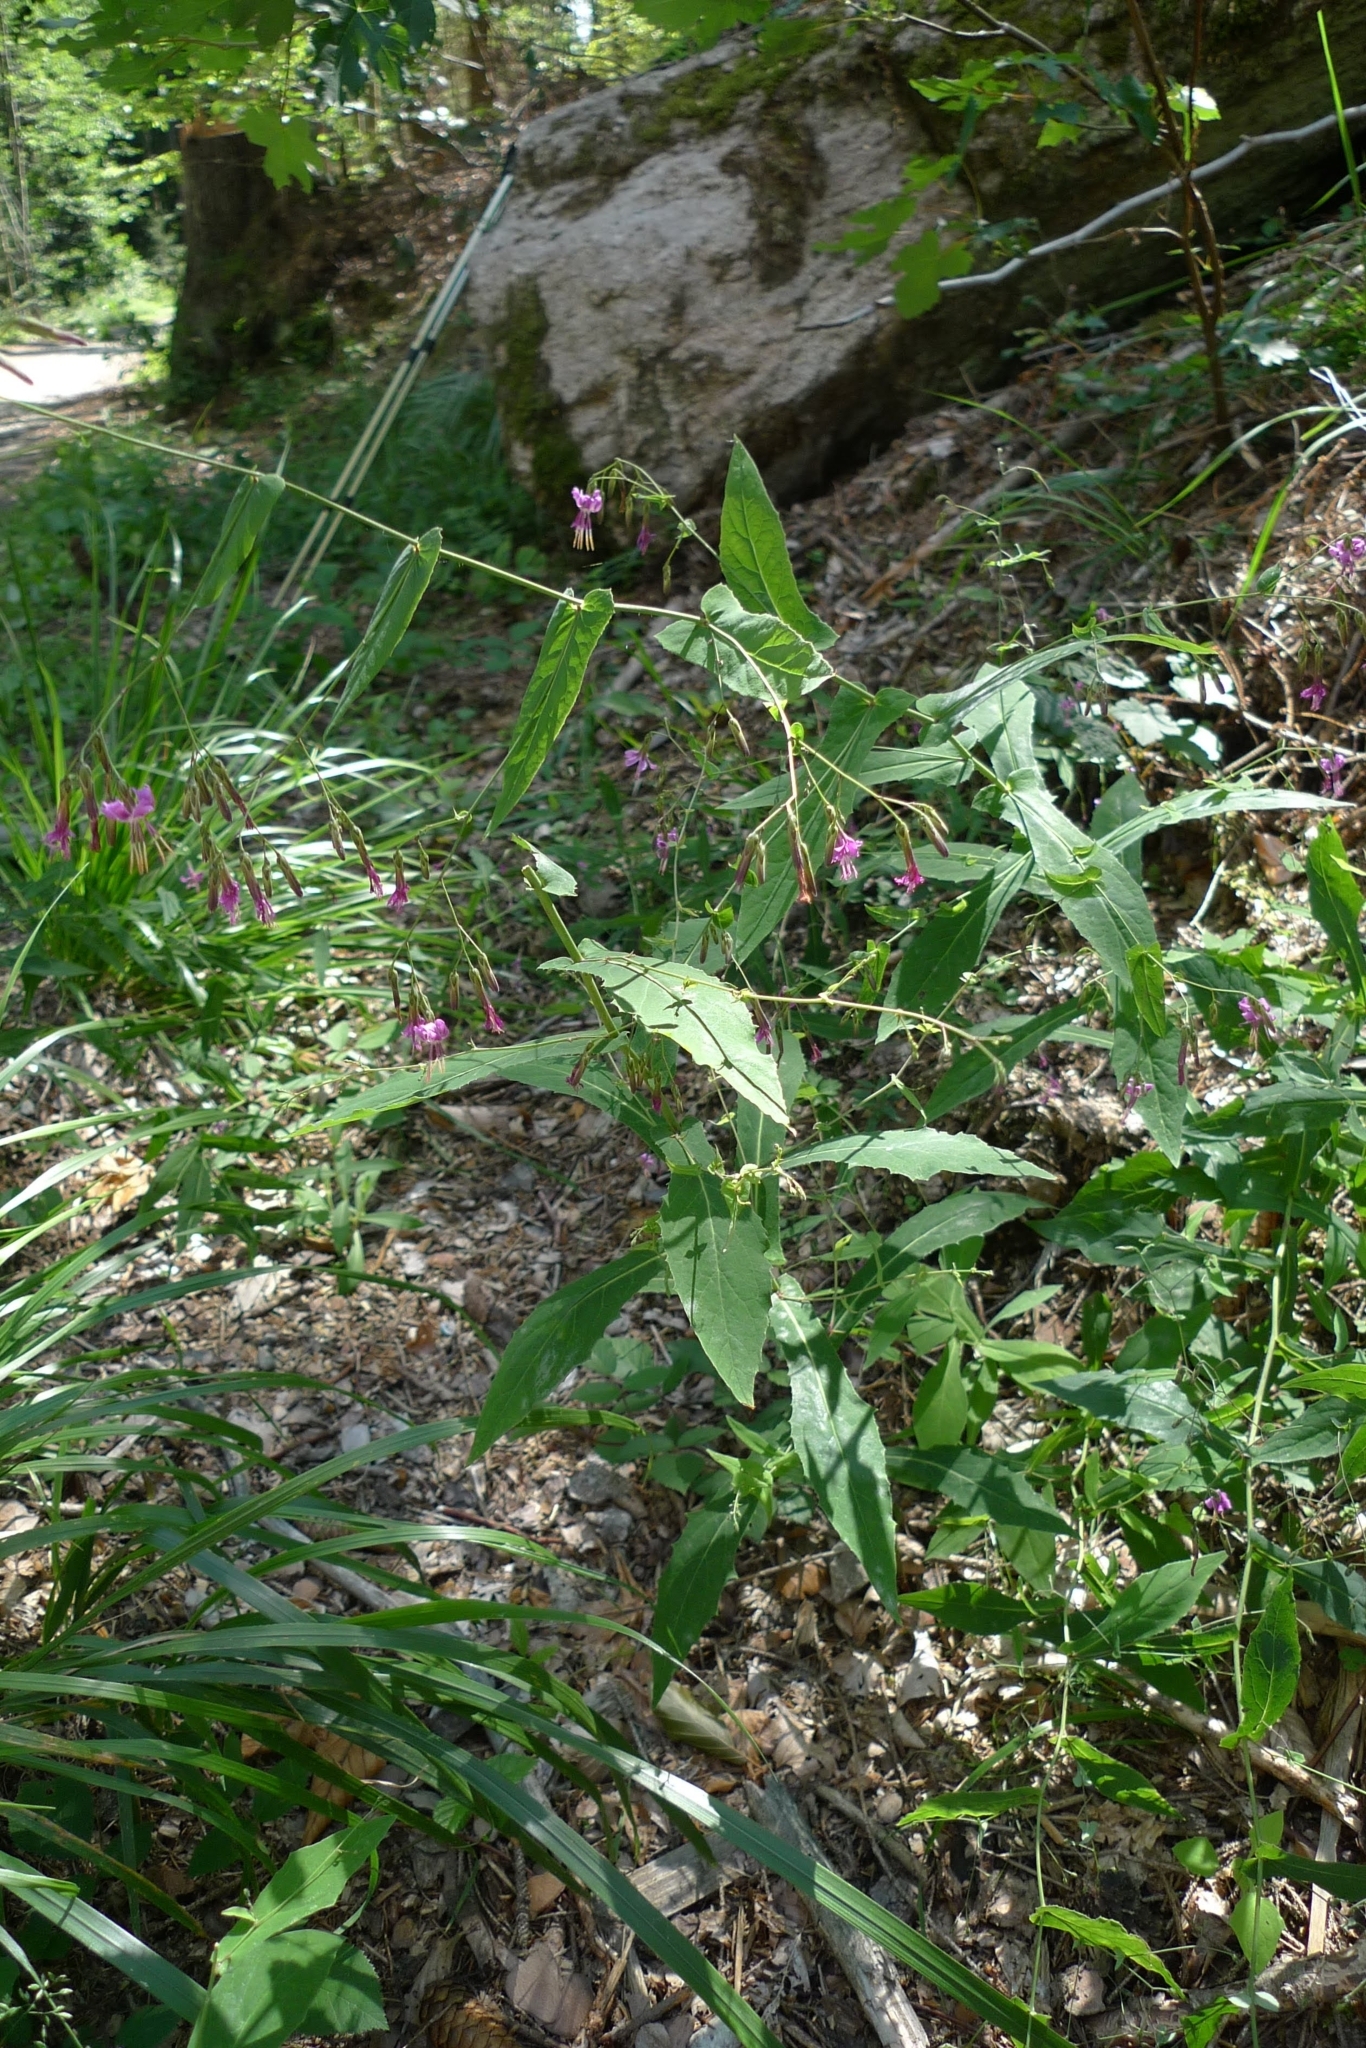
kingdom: Plantae
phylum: Tracheophyta
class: Magnoliopsida
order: Asterales
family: Asteraceae
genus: Prenanthes
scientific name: Prenanthes purpurea
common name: Purple lettuce
